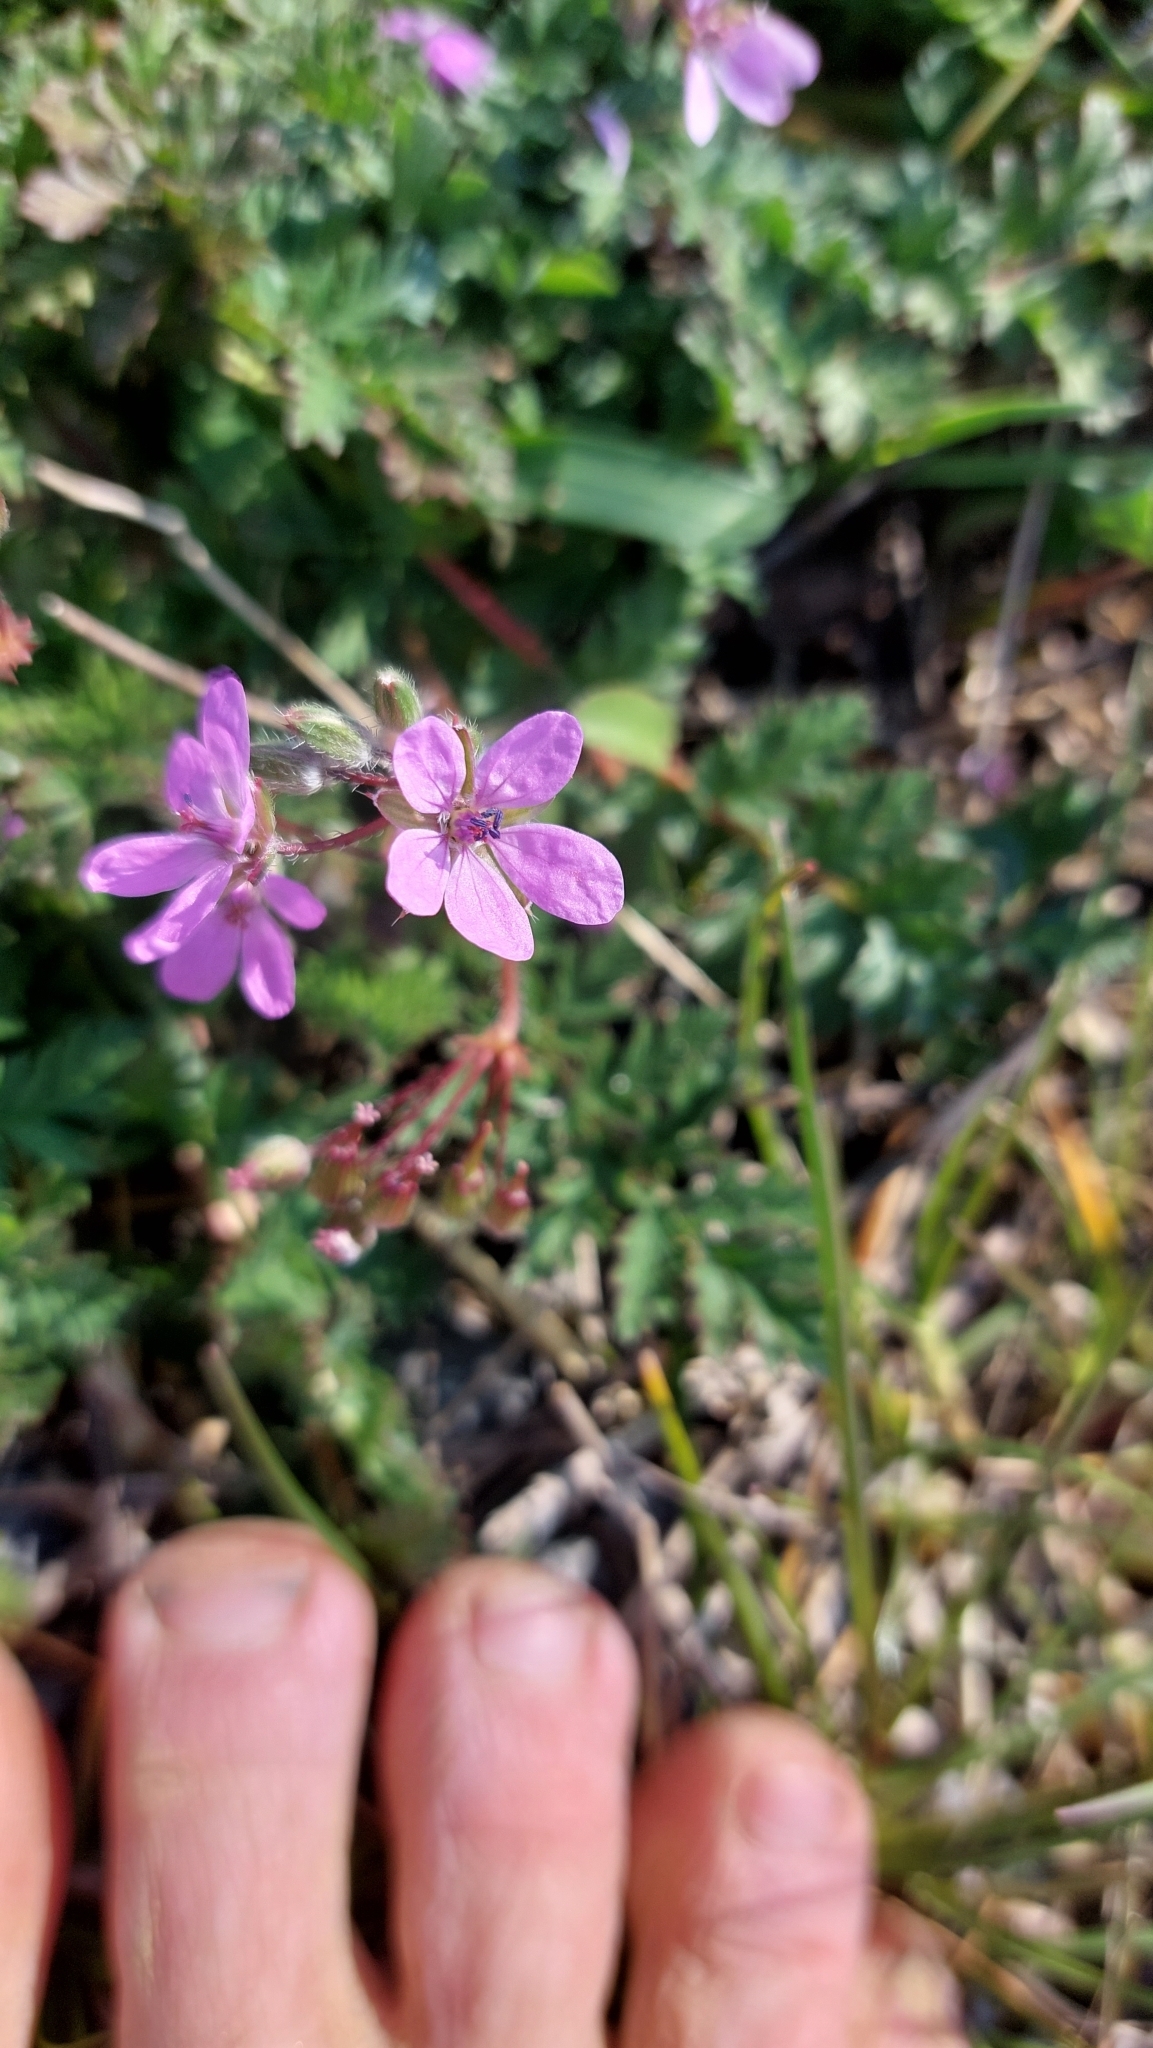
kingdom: Plantae
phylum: Tracheophyta
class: Magnoliopsida
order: Geraniales
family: Geraniaceae
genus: Erodium
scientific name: Erodium cicutarium
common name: Common stork's-bill
